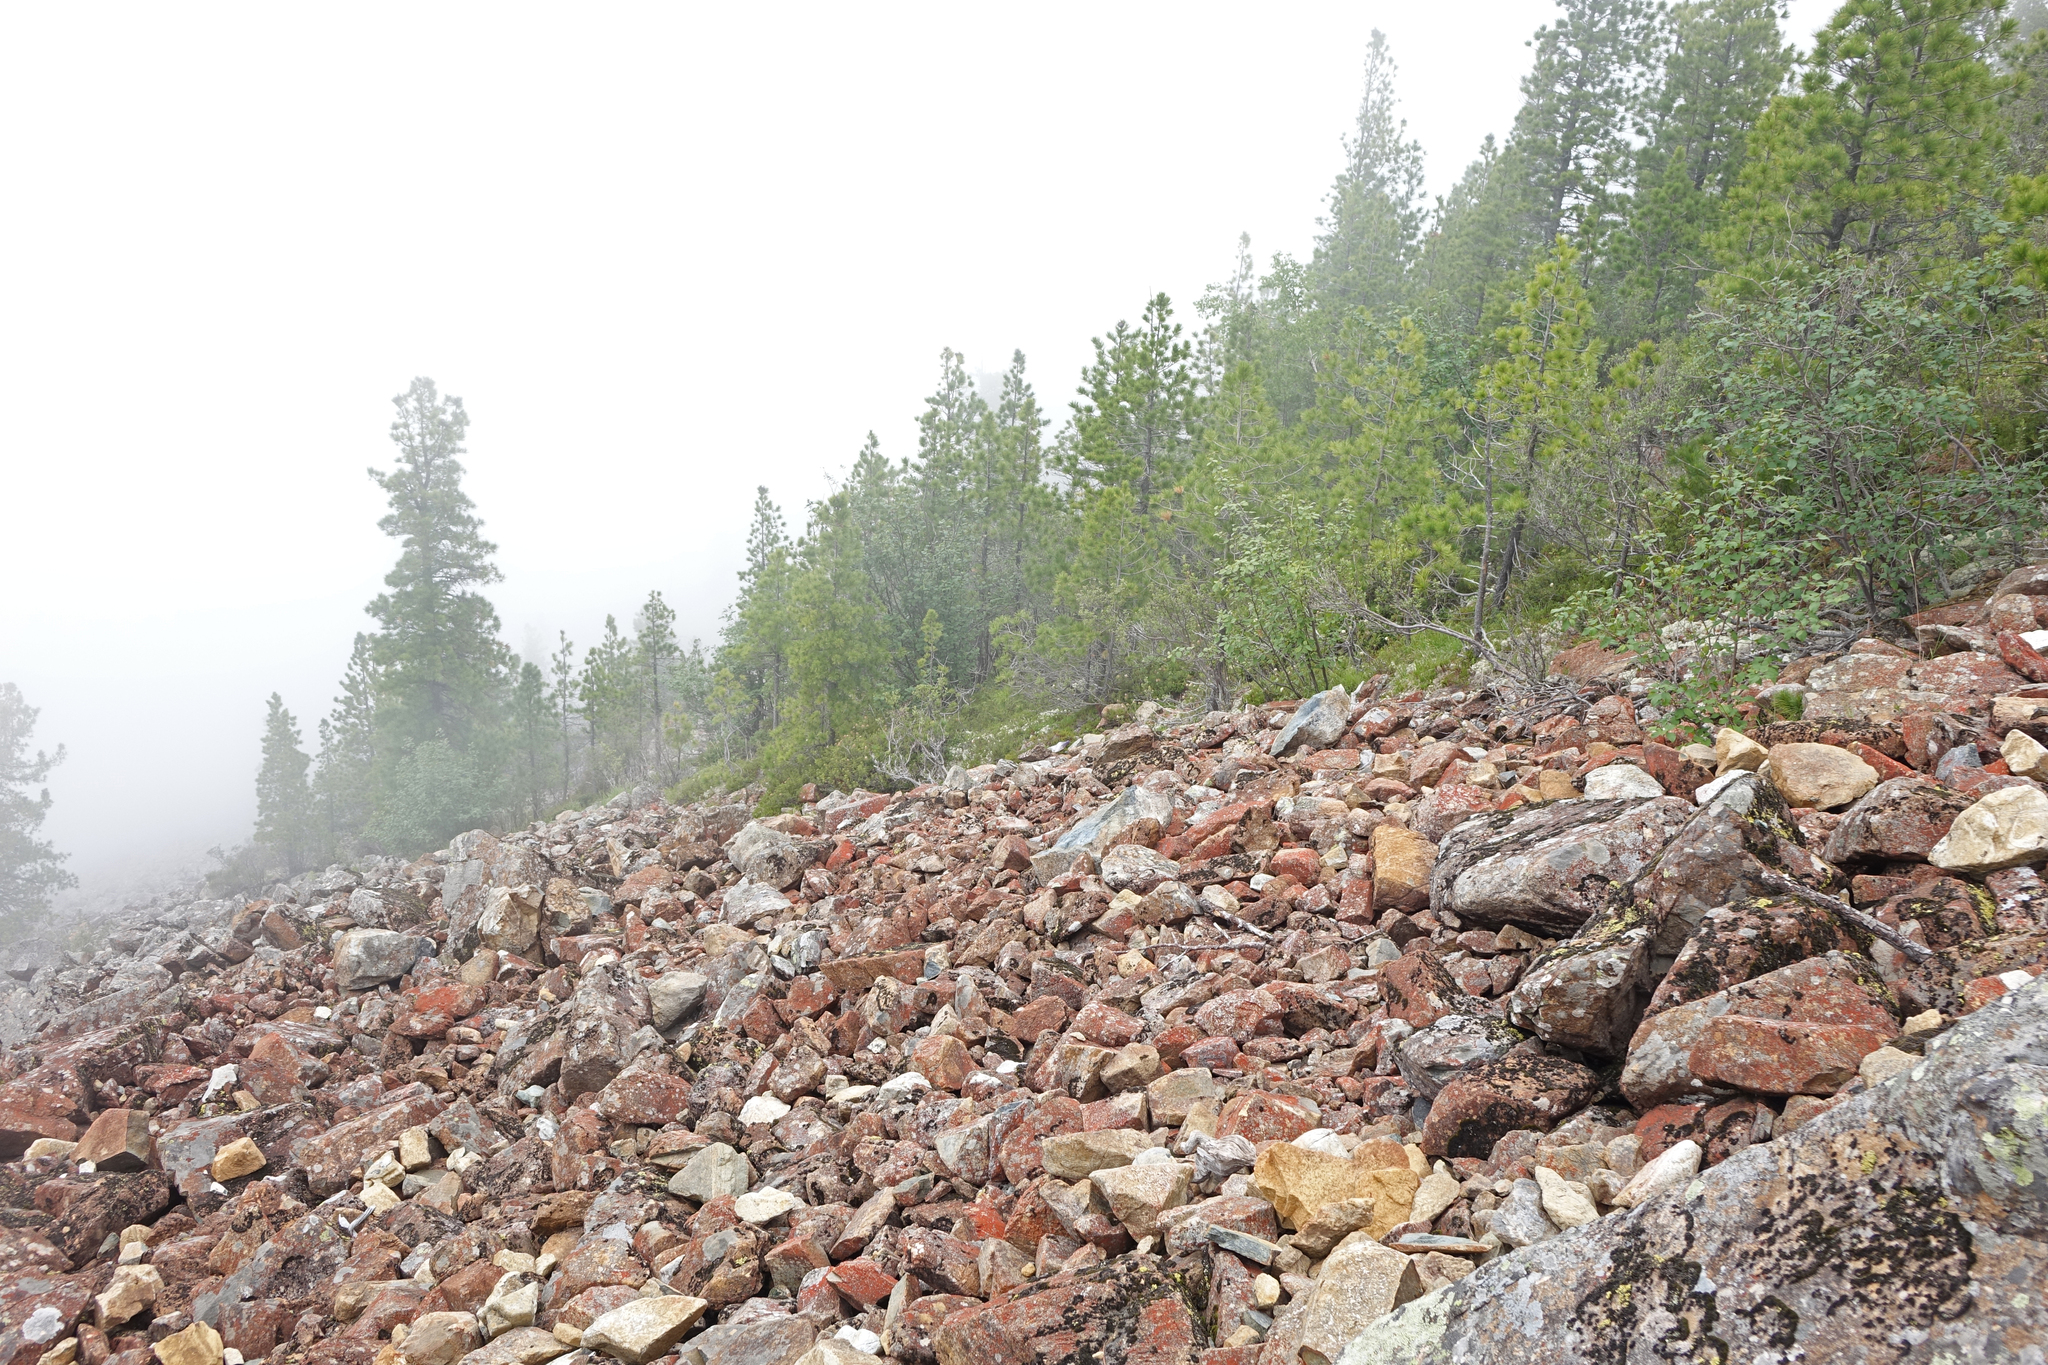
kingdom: Plantae
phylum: Tracheophyta
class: Pinopsida
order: Pinales
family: Pinaceae
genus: Pinus
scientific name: Pinus sibirica
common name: Siberian pine
